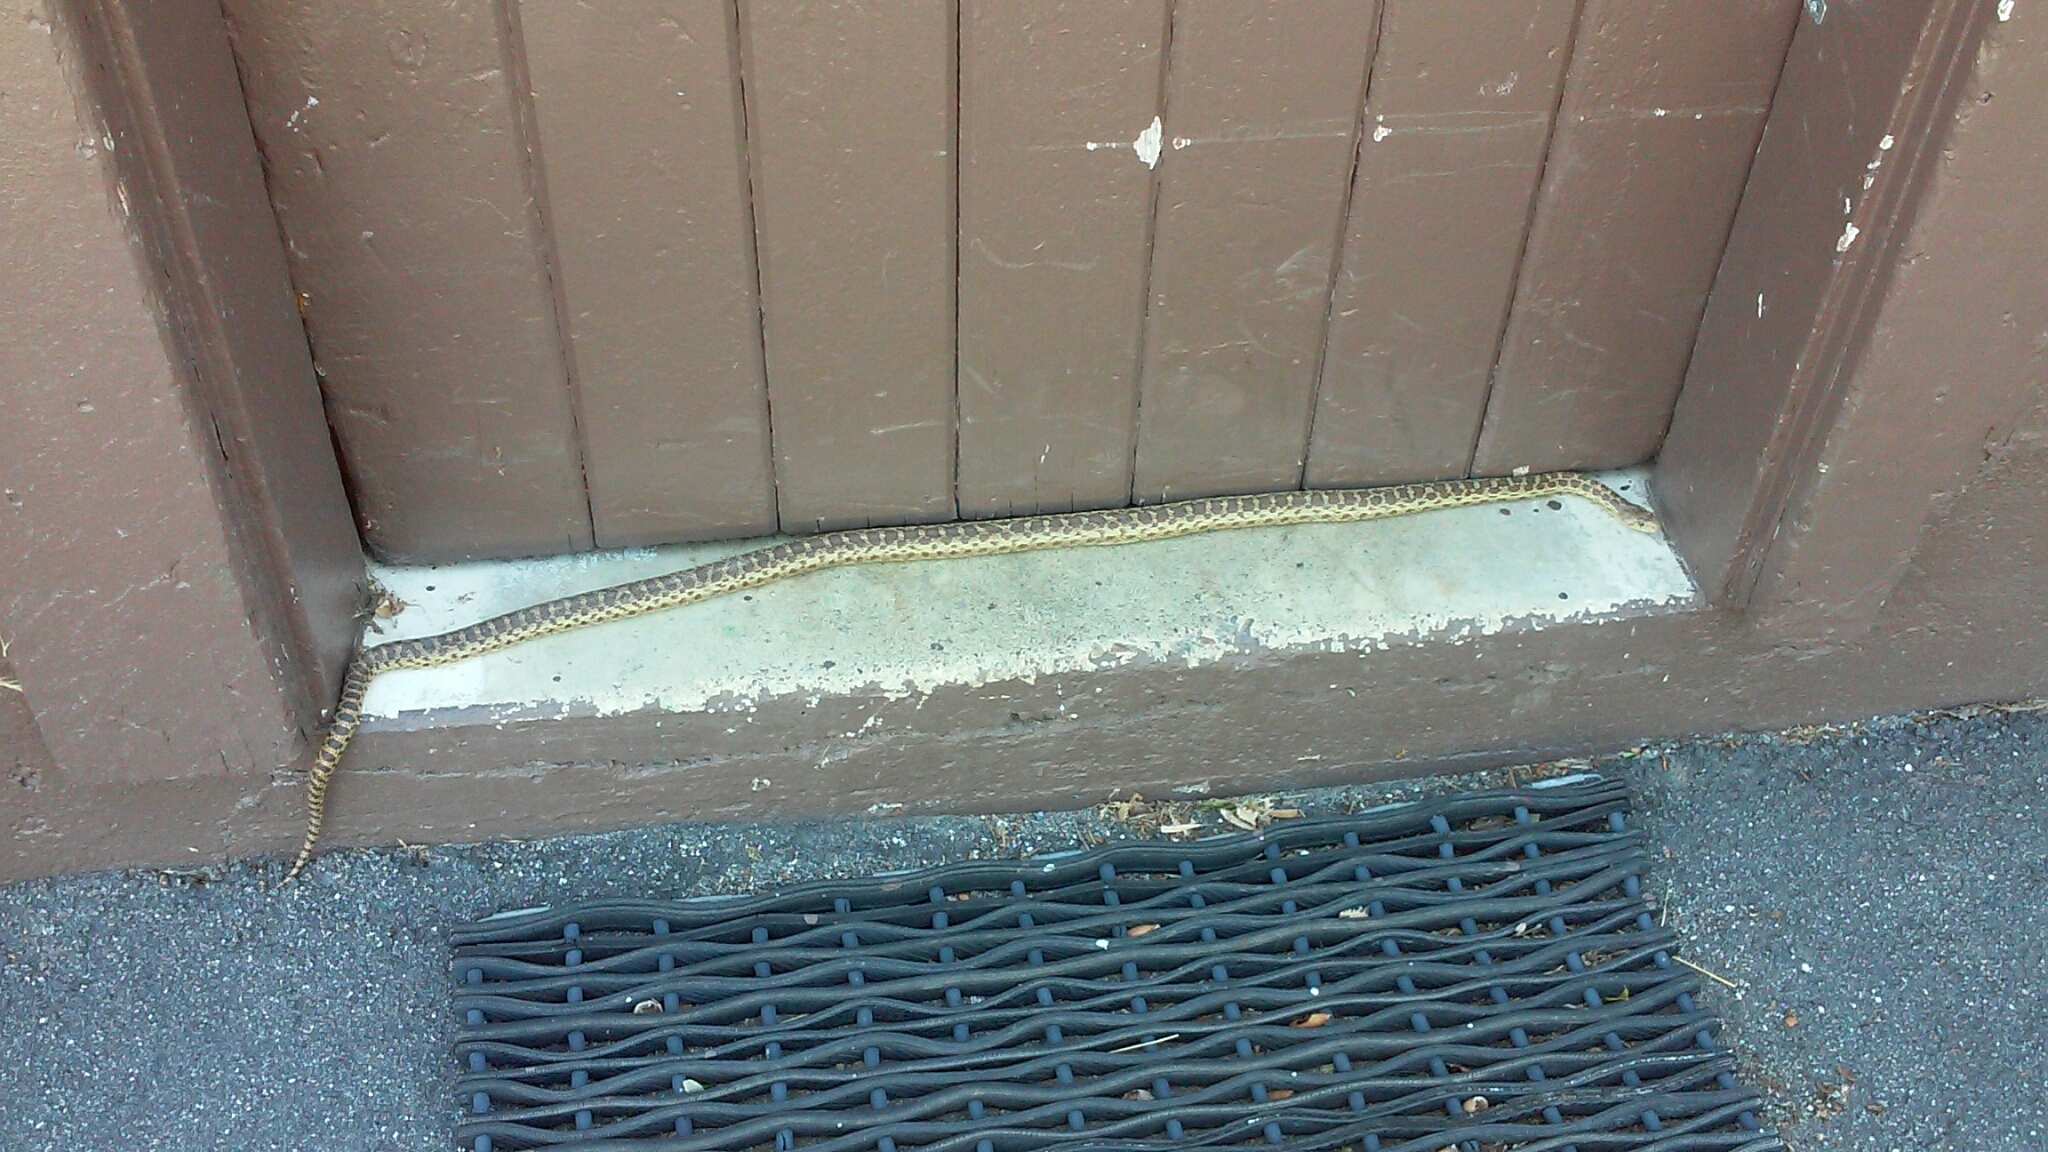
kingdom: Animalia
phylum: Chordata
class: Squamata
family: Colubridae
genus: Pituophis
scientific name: Pituophis catenifer
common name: Gopher snake
